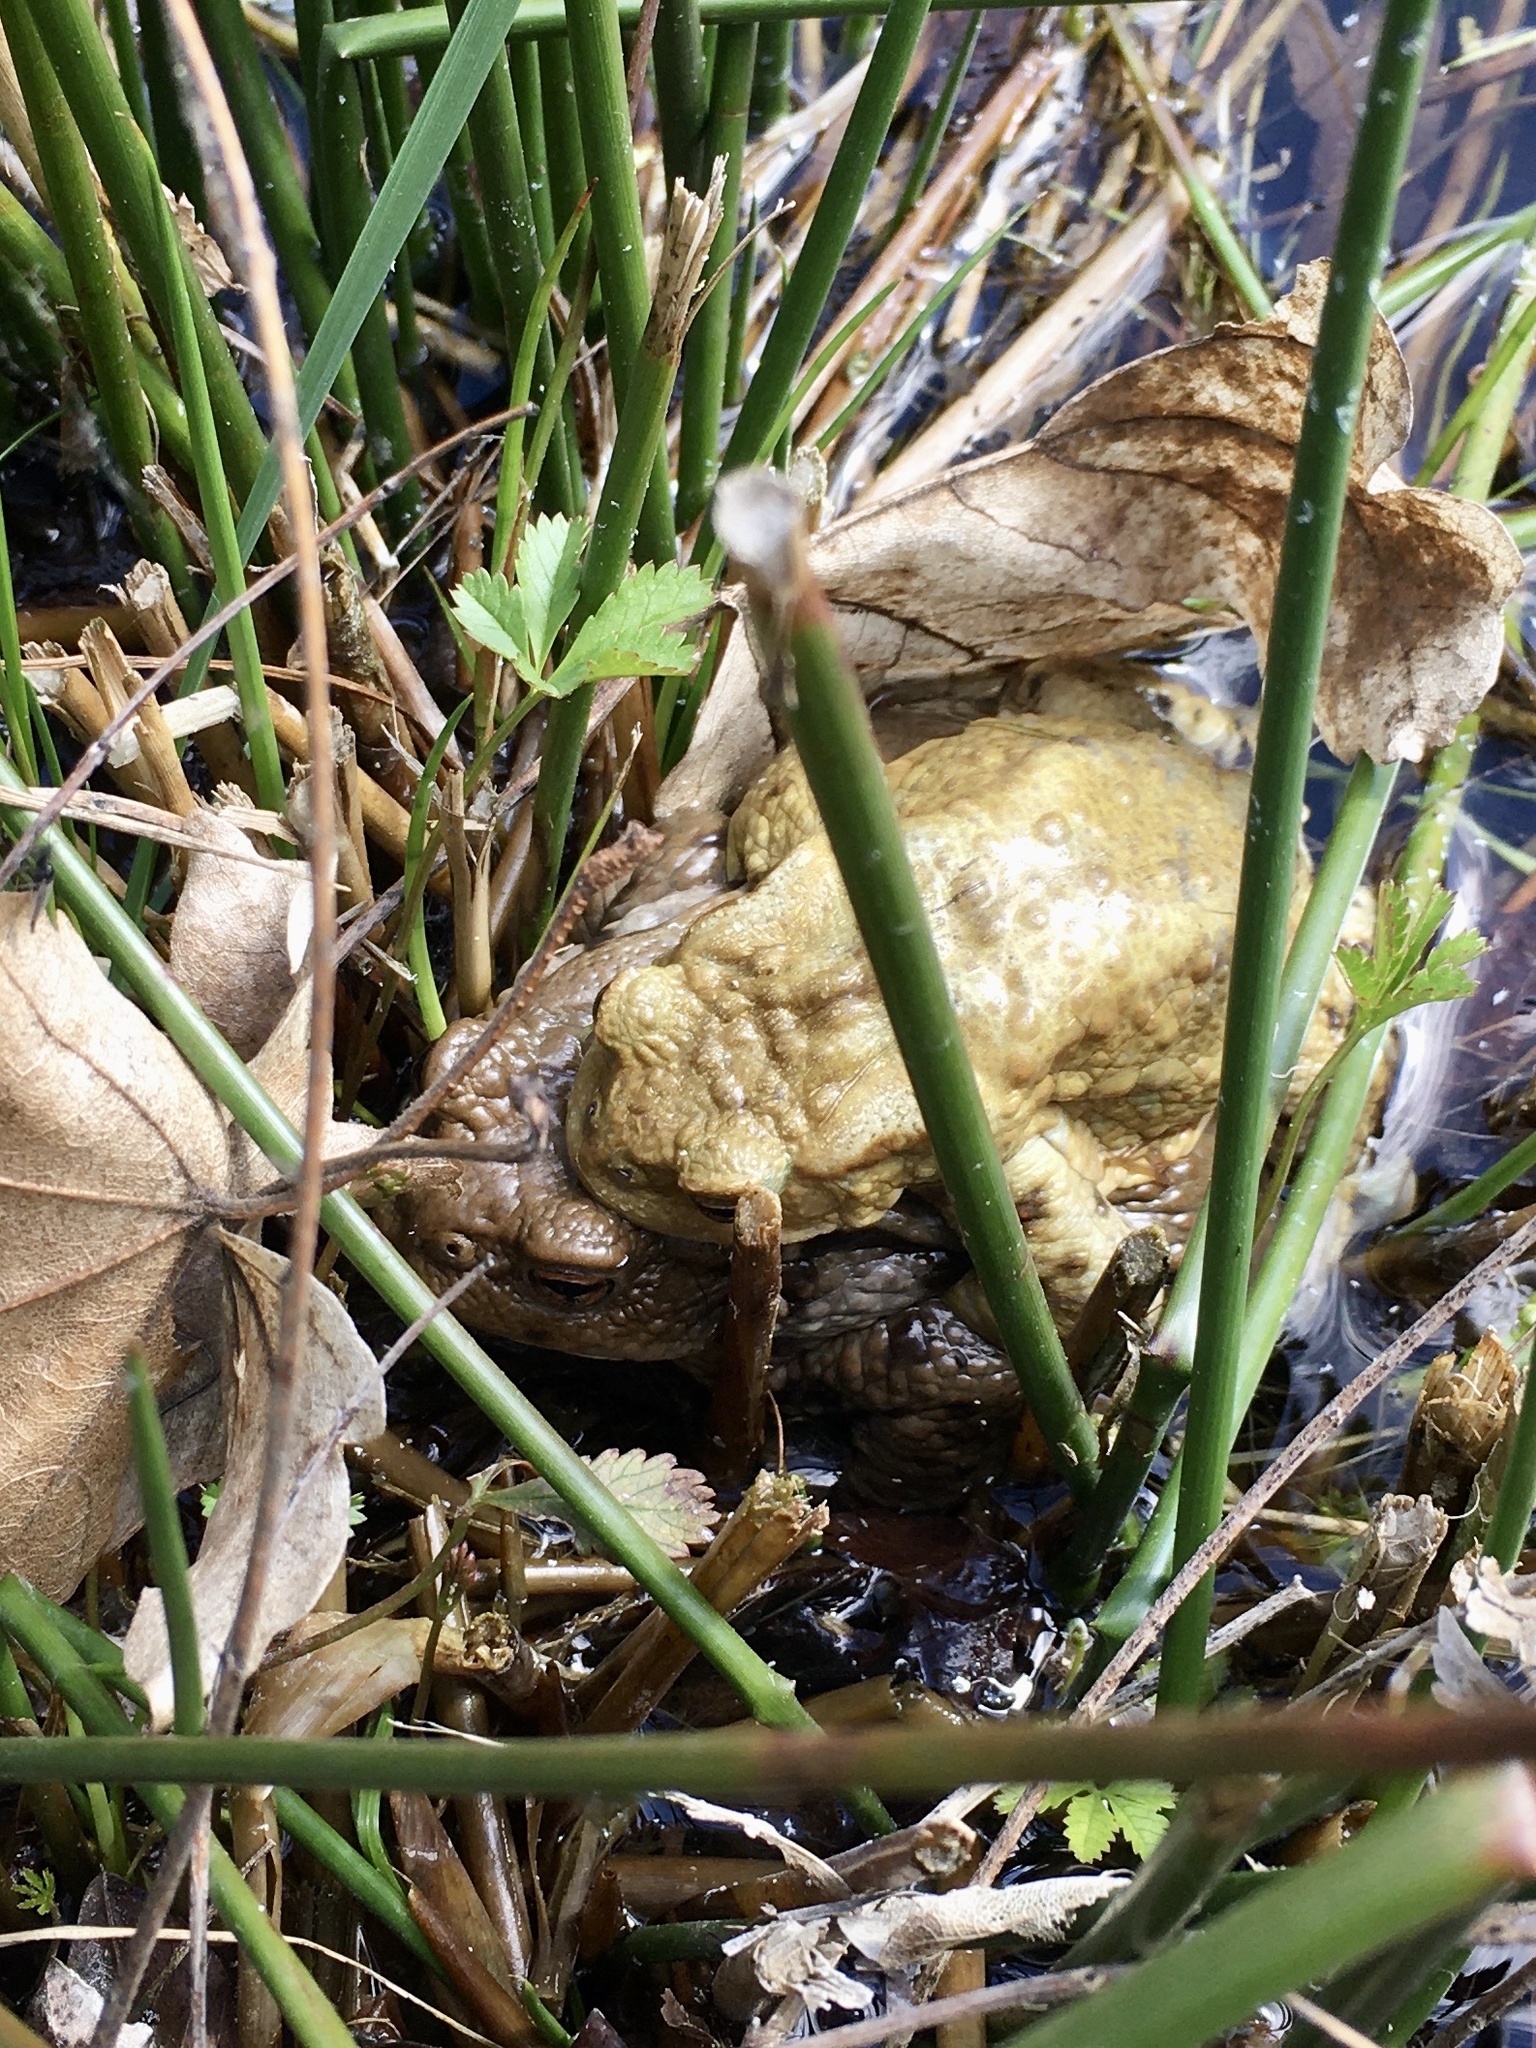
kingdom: Animalia
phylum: Chordata
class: Amphibia
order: Anura
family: Bufonidae
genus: Bufo
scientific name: Bufo bufo
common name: Common toad
